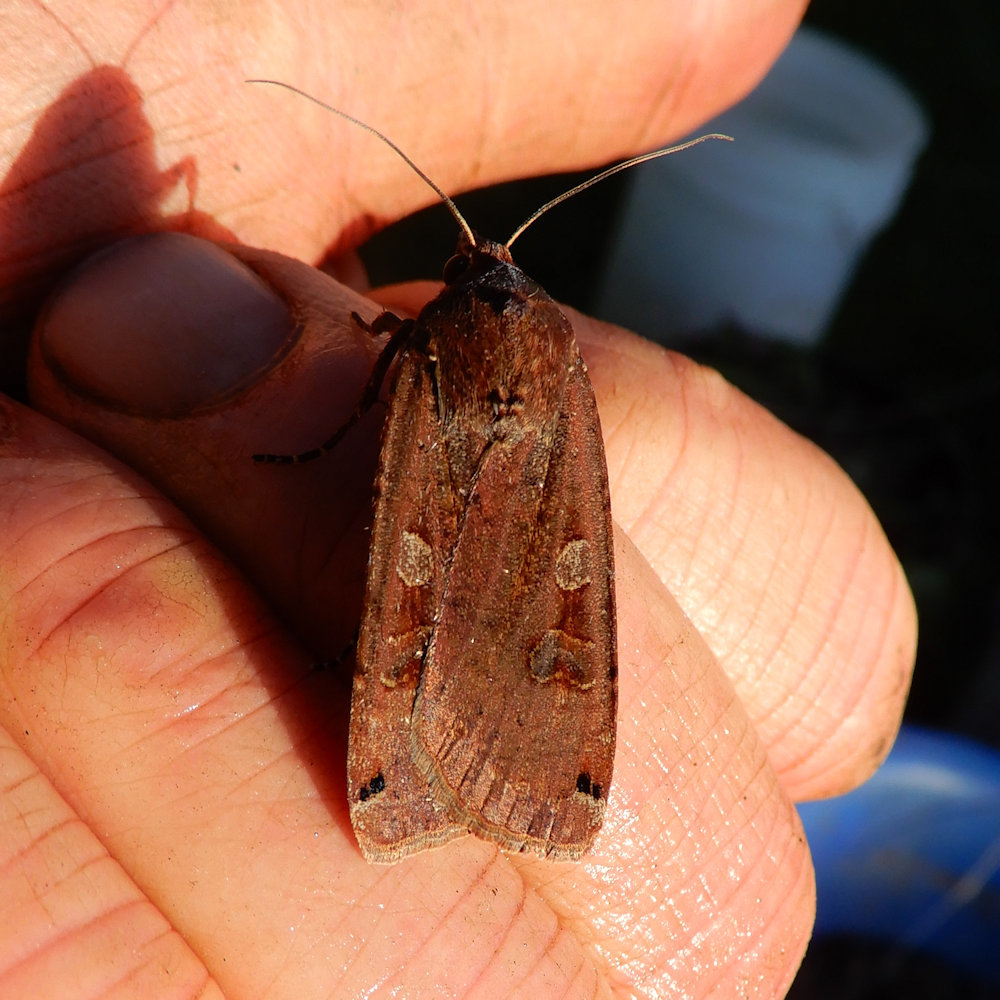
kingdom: Animalia
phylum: Arthropoda
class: Insecta
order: Lepidoptera
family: Noctuidae
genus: Noctua
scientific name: Noctua pronuba
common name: Large yellow underwing
